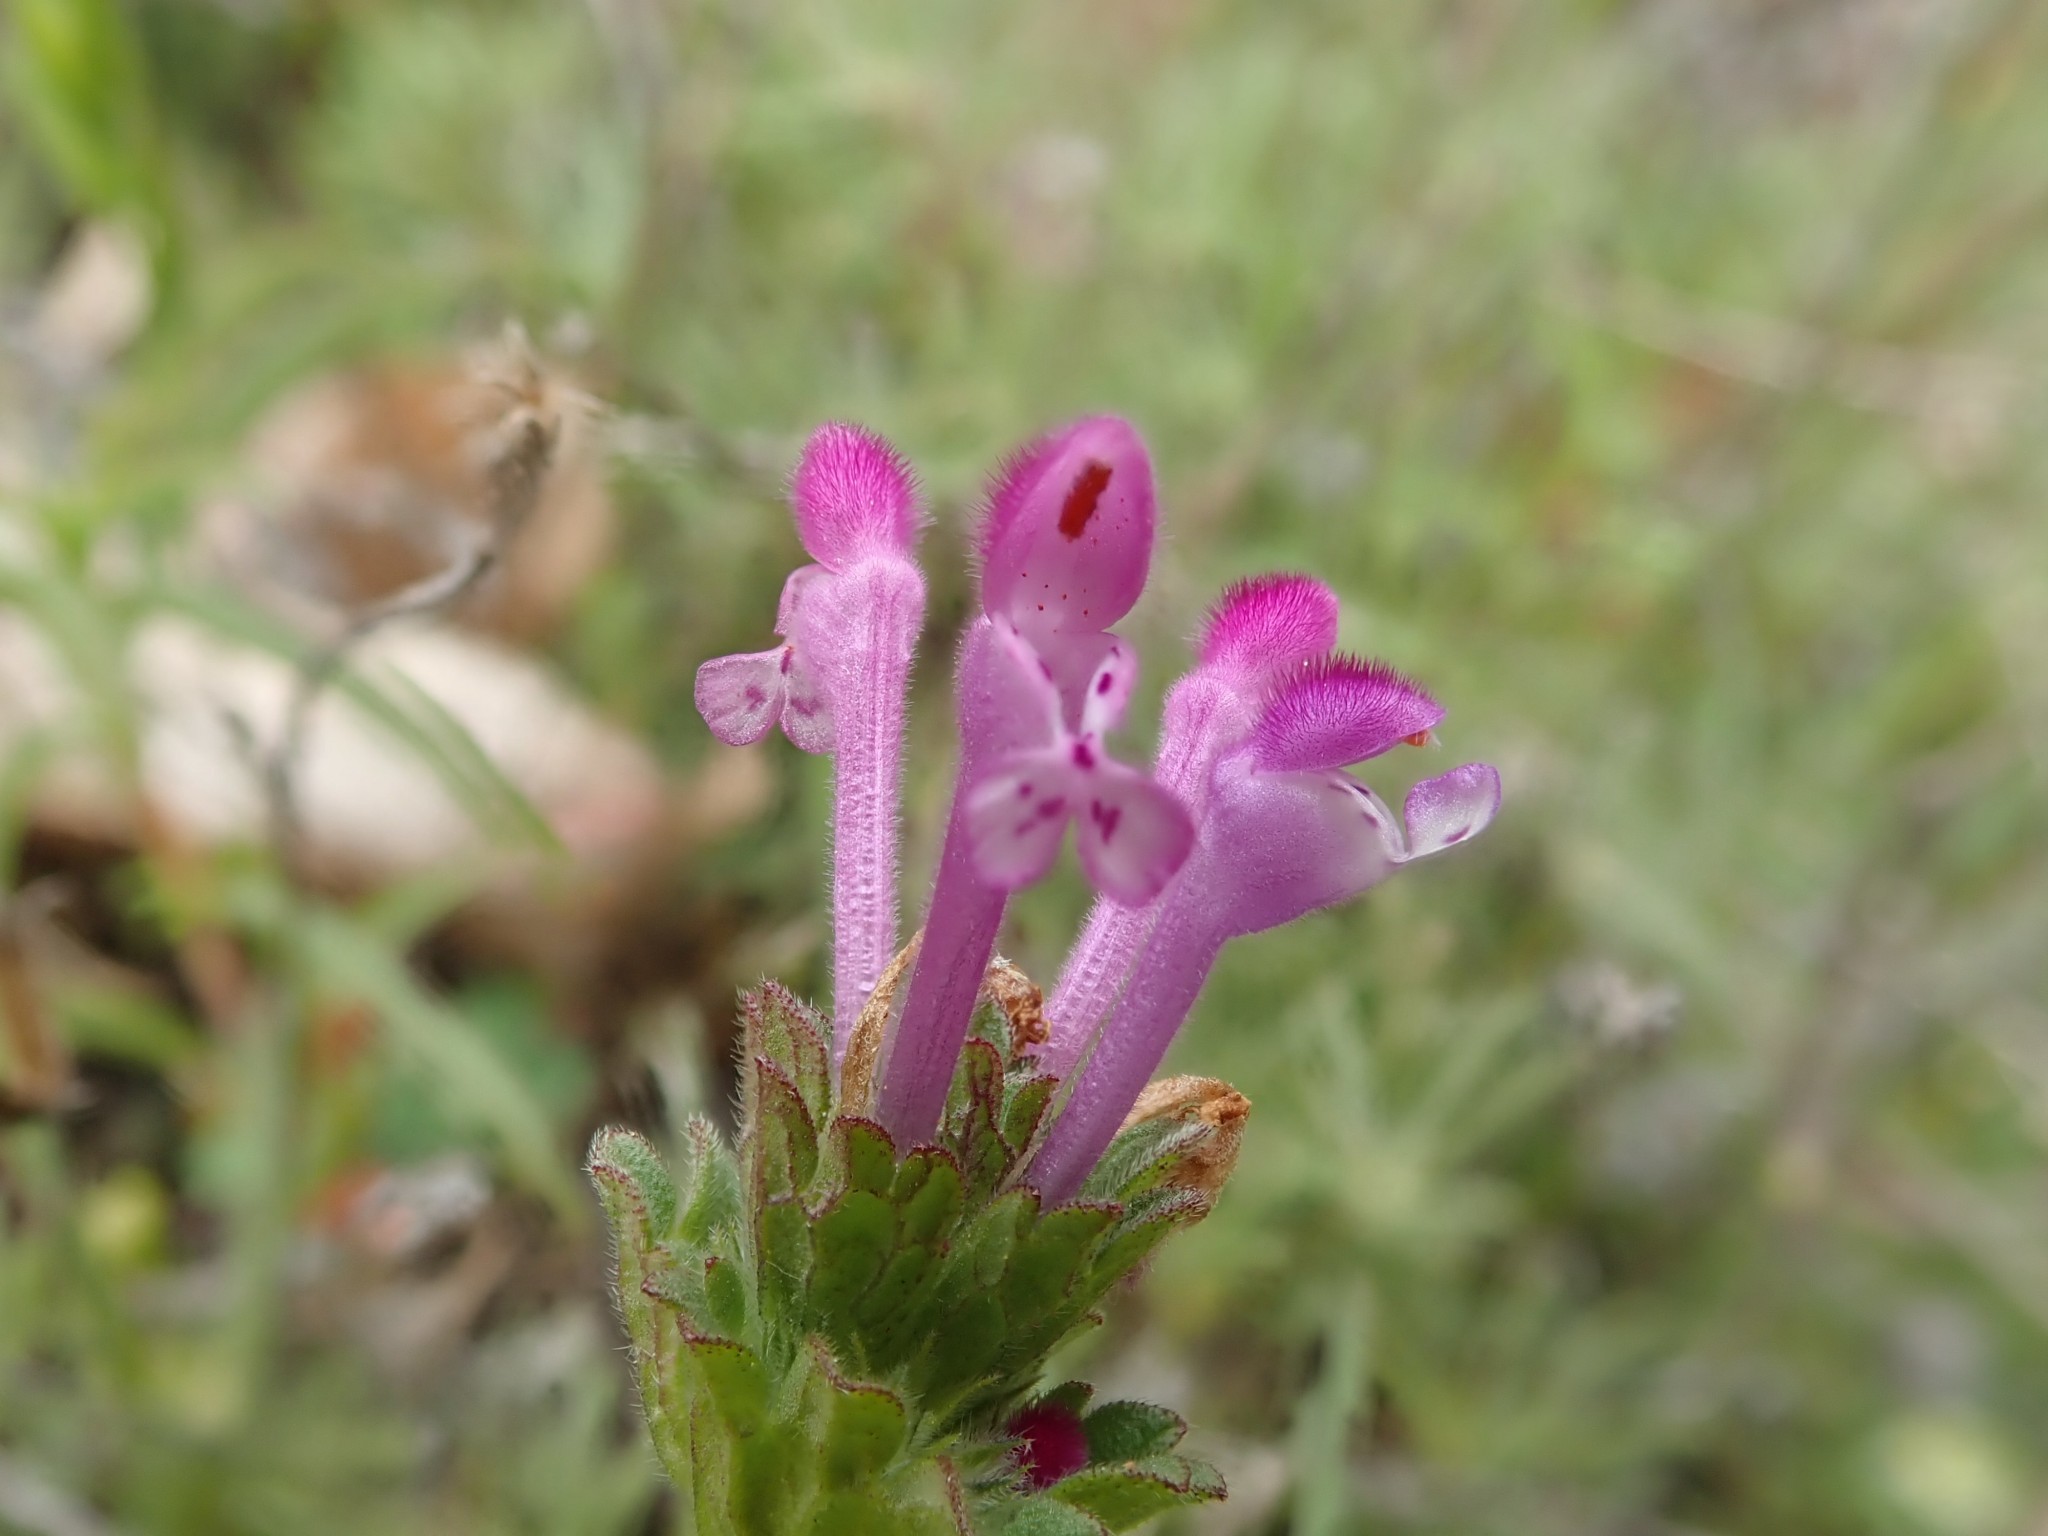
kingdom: Plantae
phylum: Tracheophyta
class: Magnoliopsida
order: Lamiales
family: Lamiaceae
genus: Lamium
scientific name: Lamium amplexicaule
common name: Henbit dead-nettle
